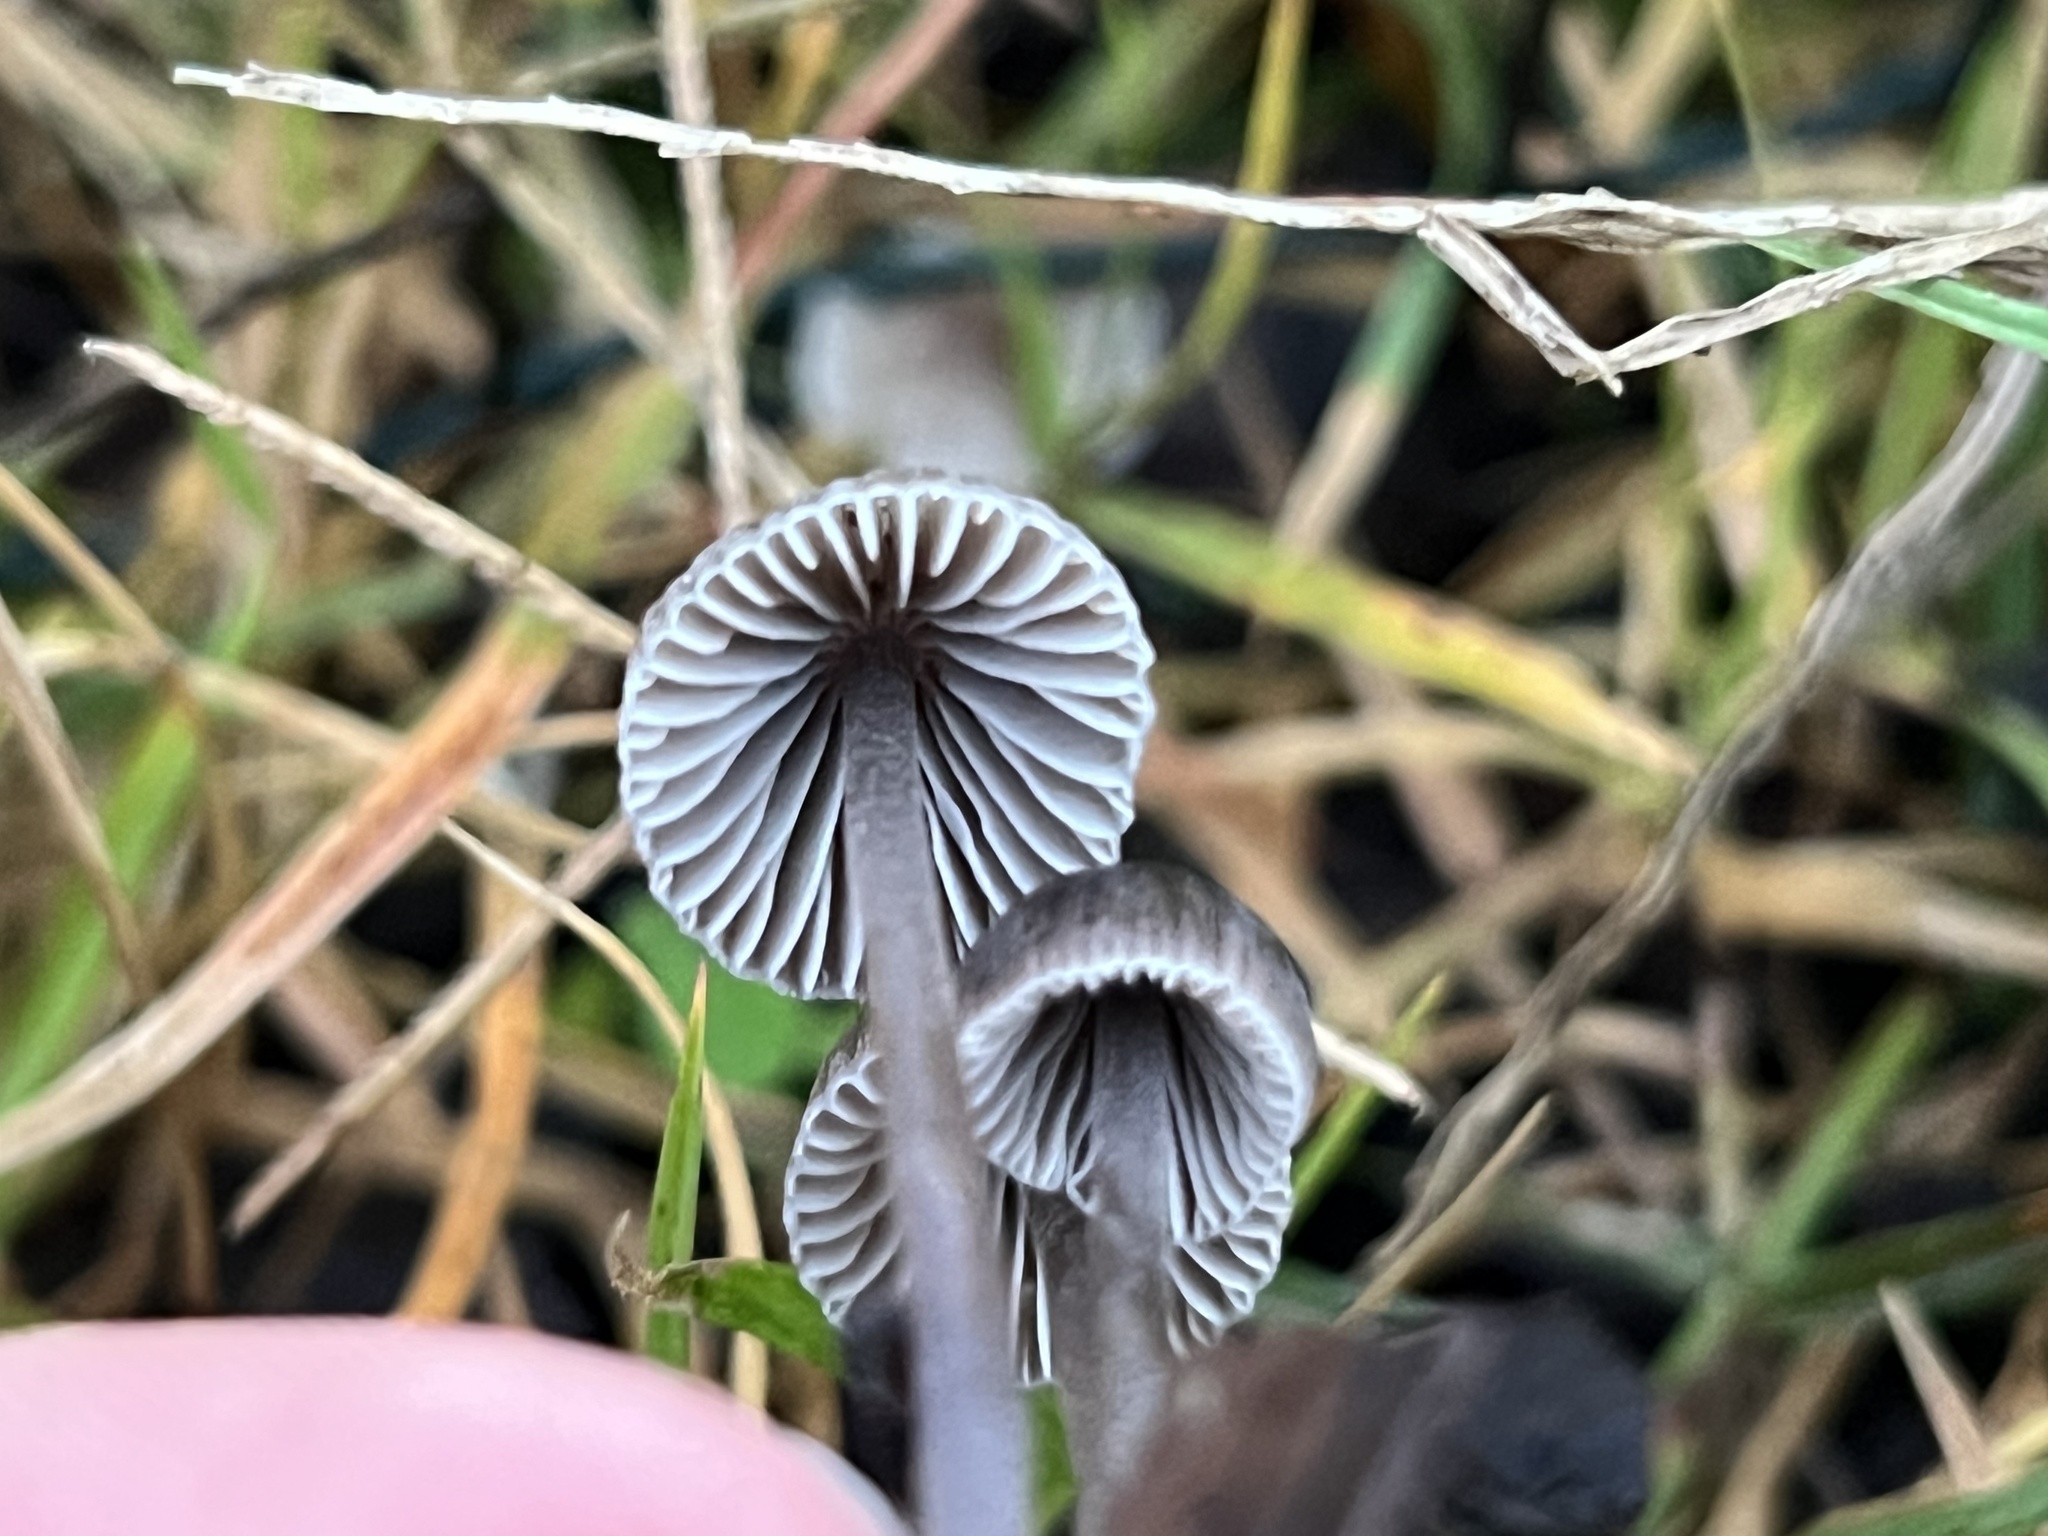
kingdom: Fungi
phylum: Basidiomycota
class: Agaricomycetes
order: Agaricales
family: Mycenaceae
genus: Mycena
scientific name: Mycena leptocephala
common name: Nitrous bonnet
